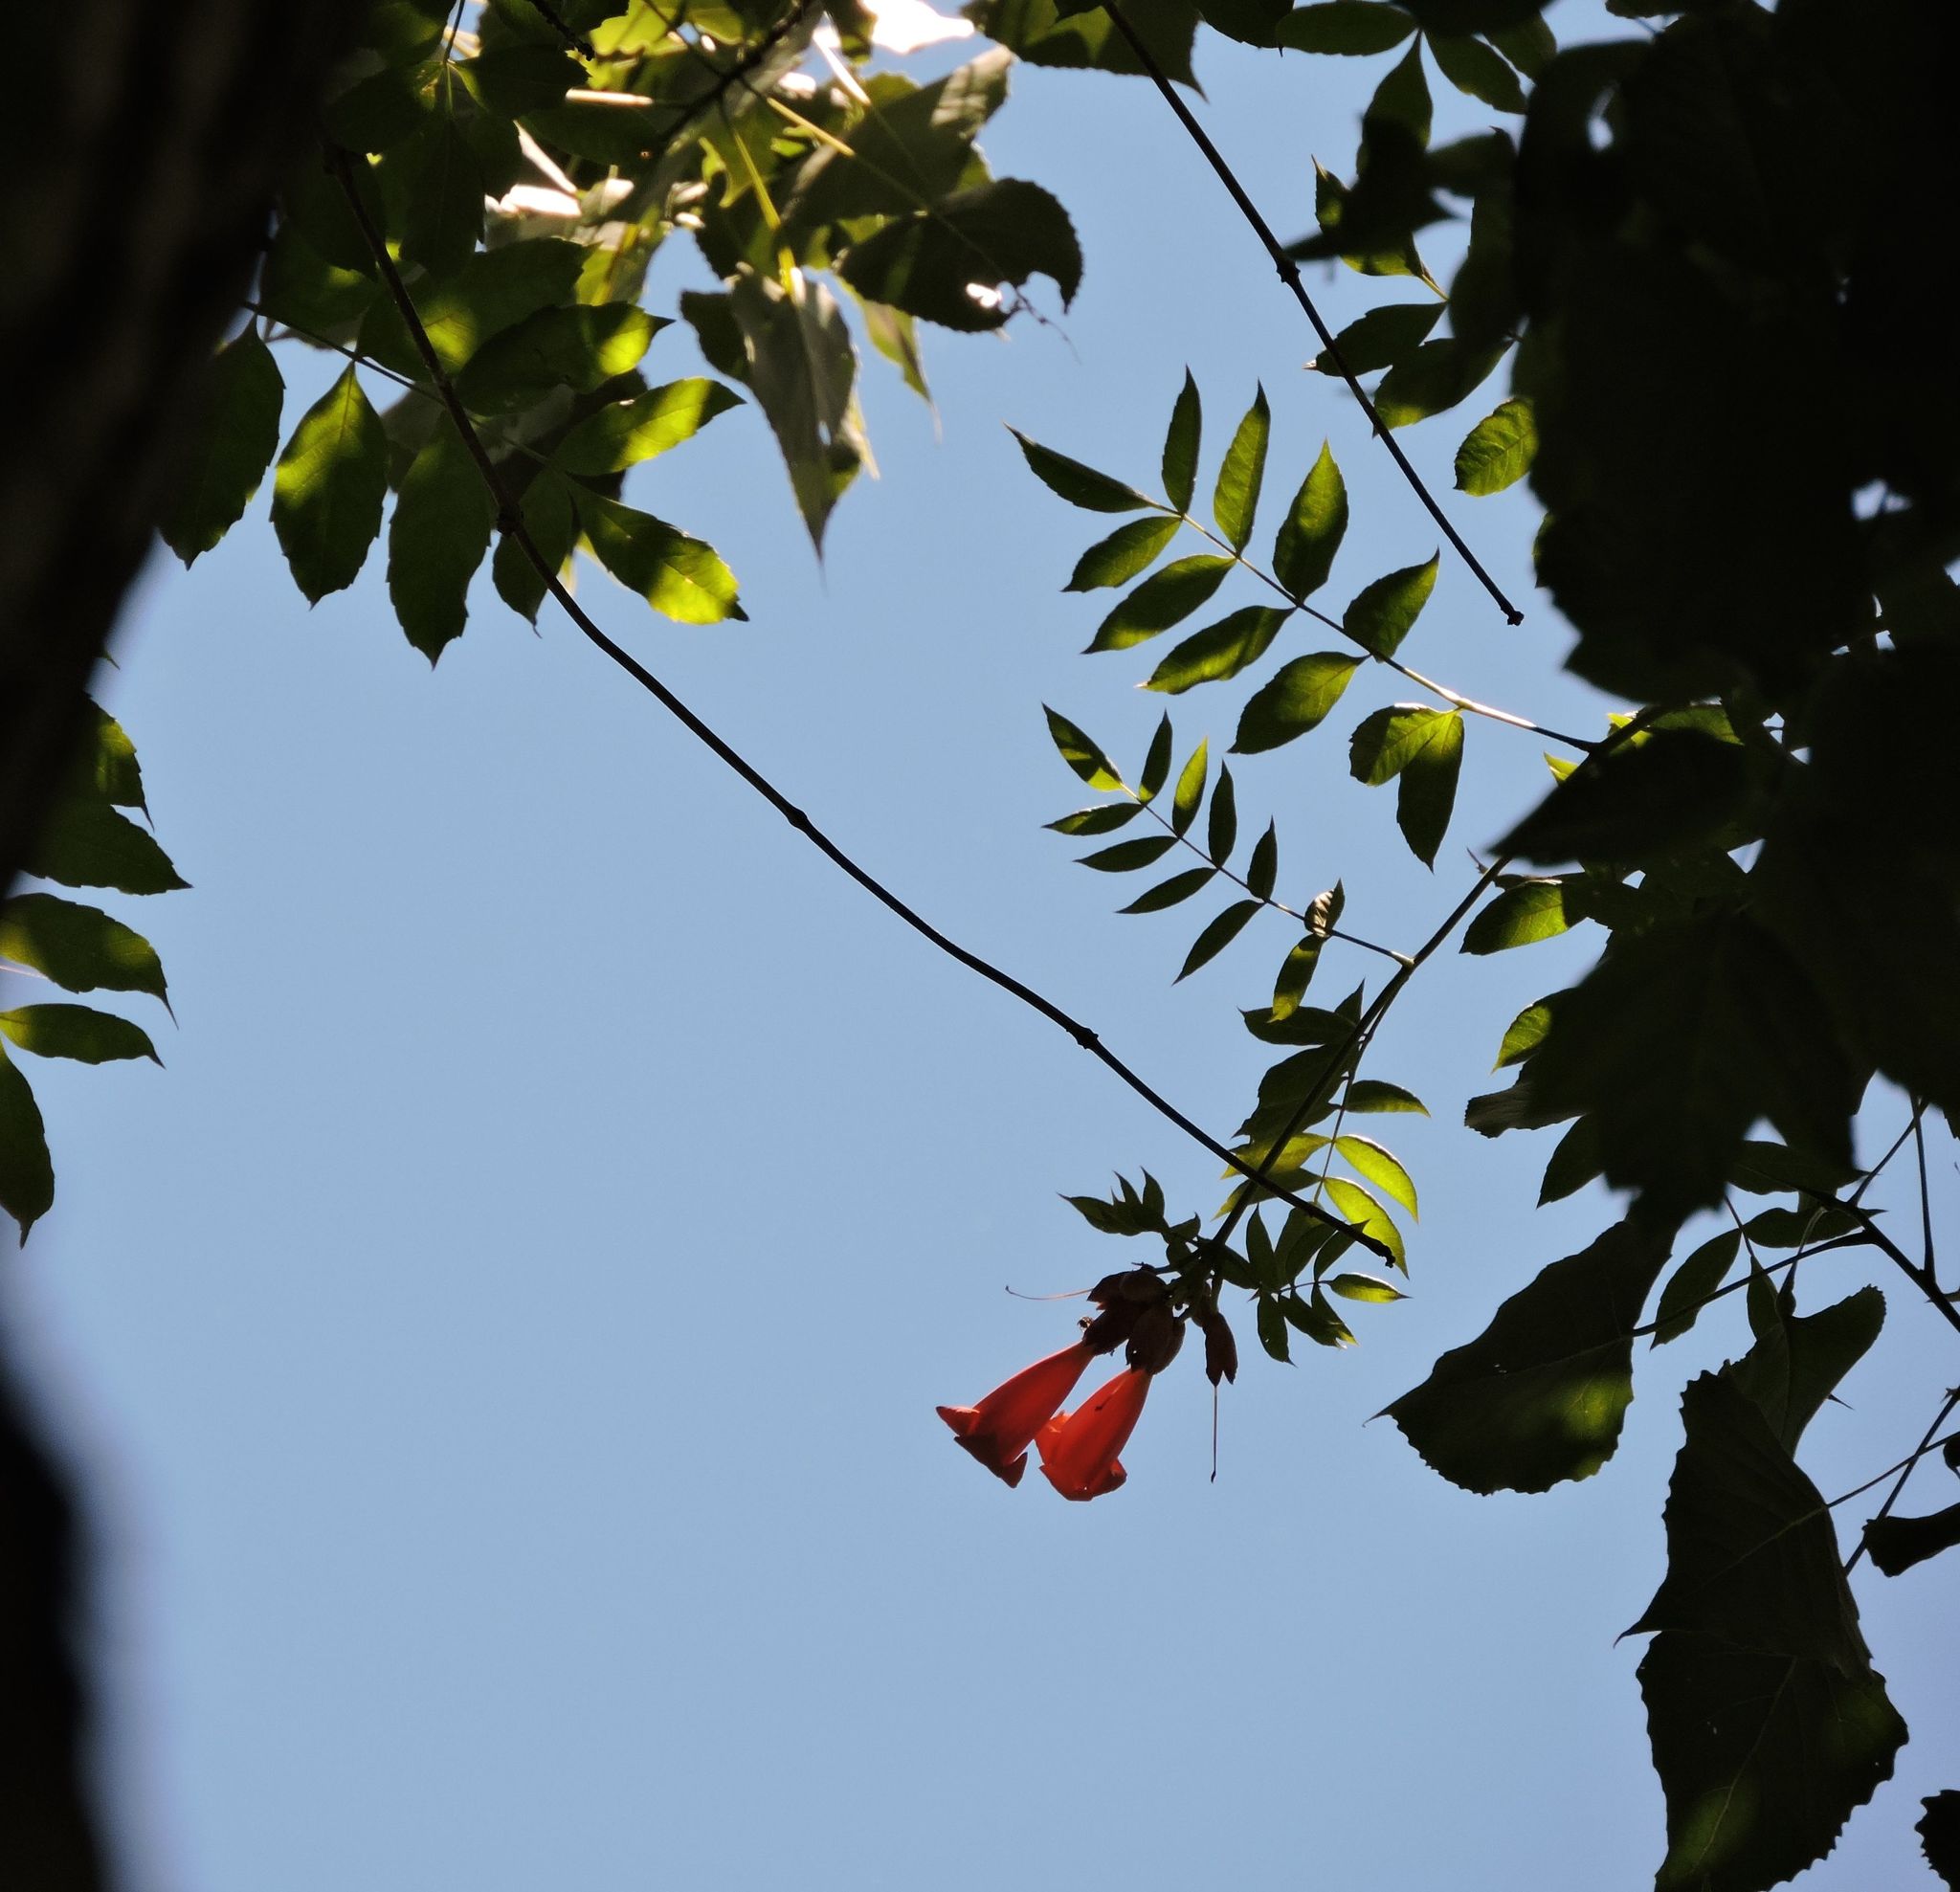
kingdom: Plantae
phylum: Tracheophyta
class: Magnoliopsida
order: Lamiales
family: Bignoniaceae
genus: Campsis
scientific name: Campsis radicans
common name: Trumpet-creeper
